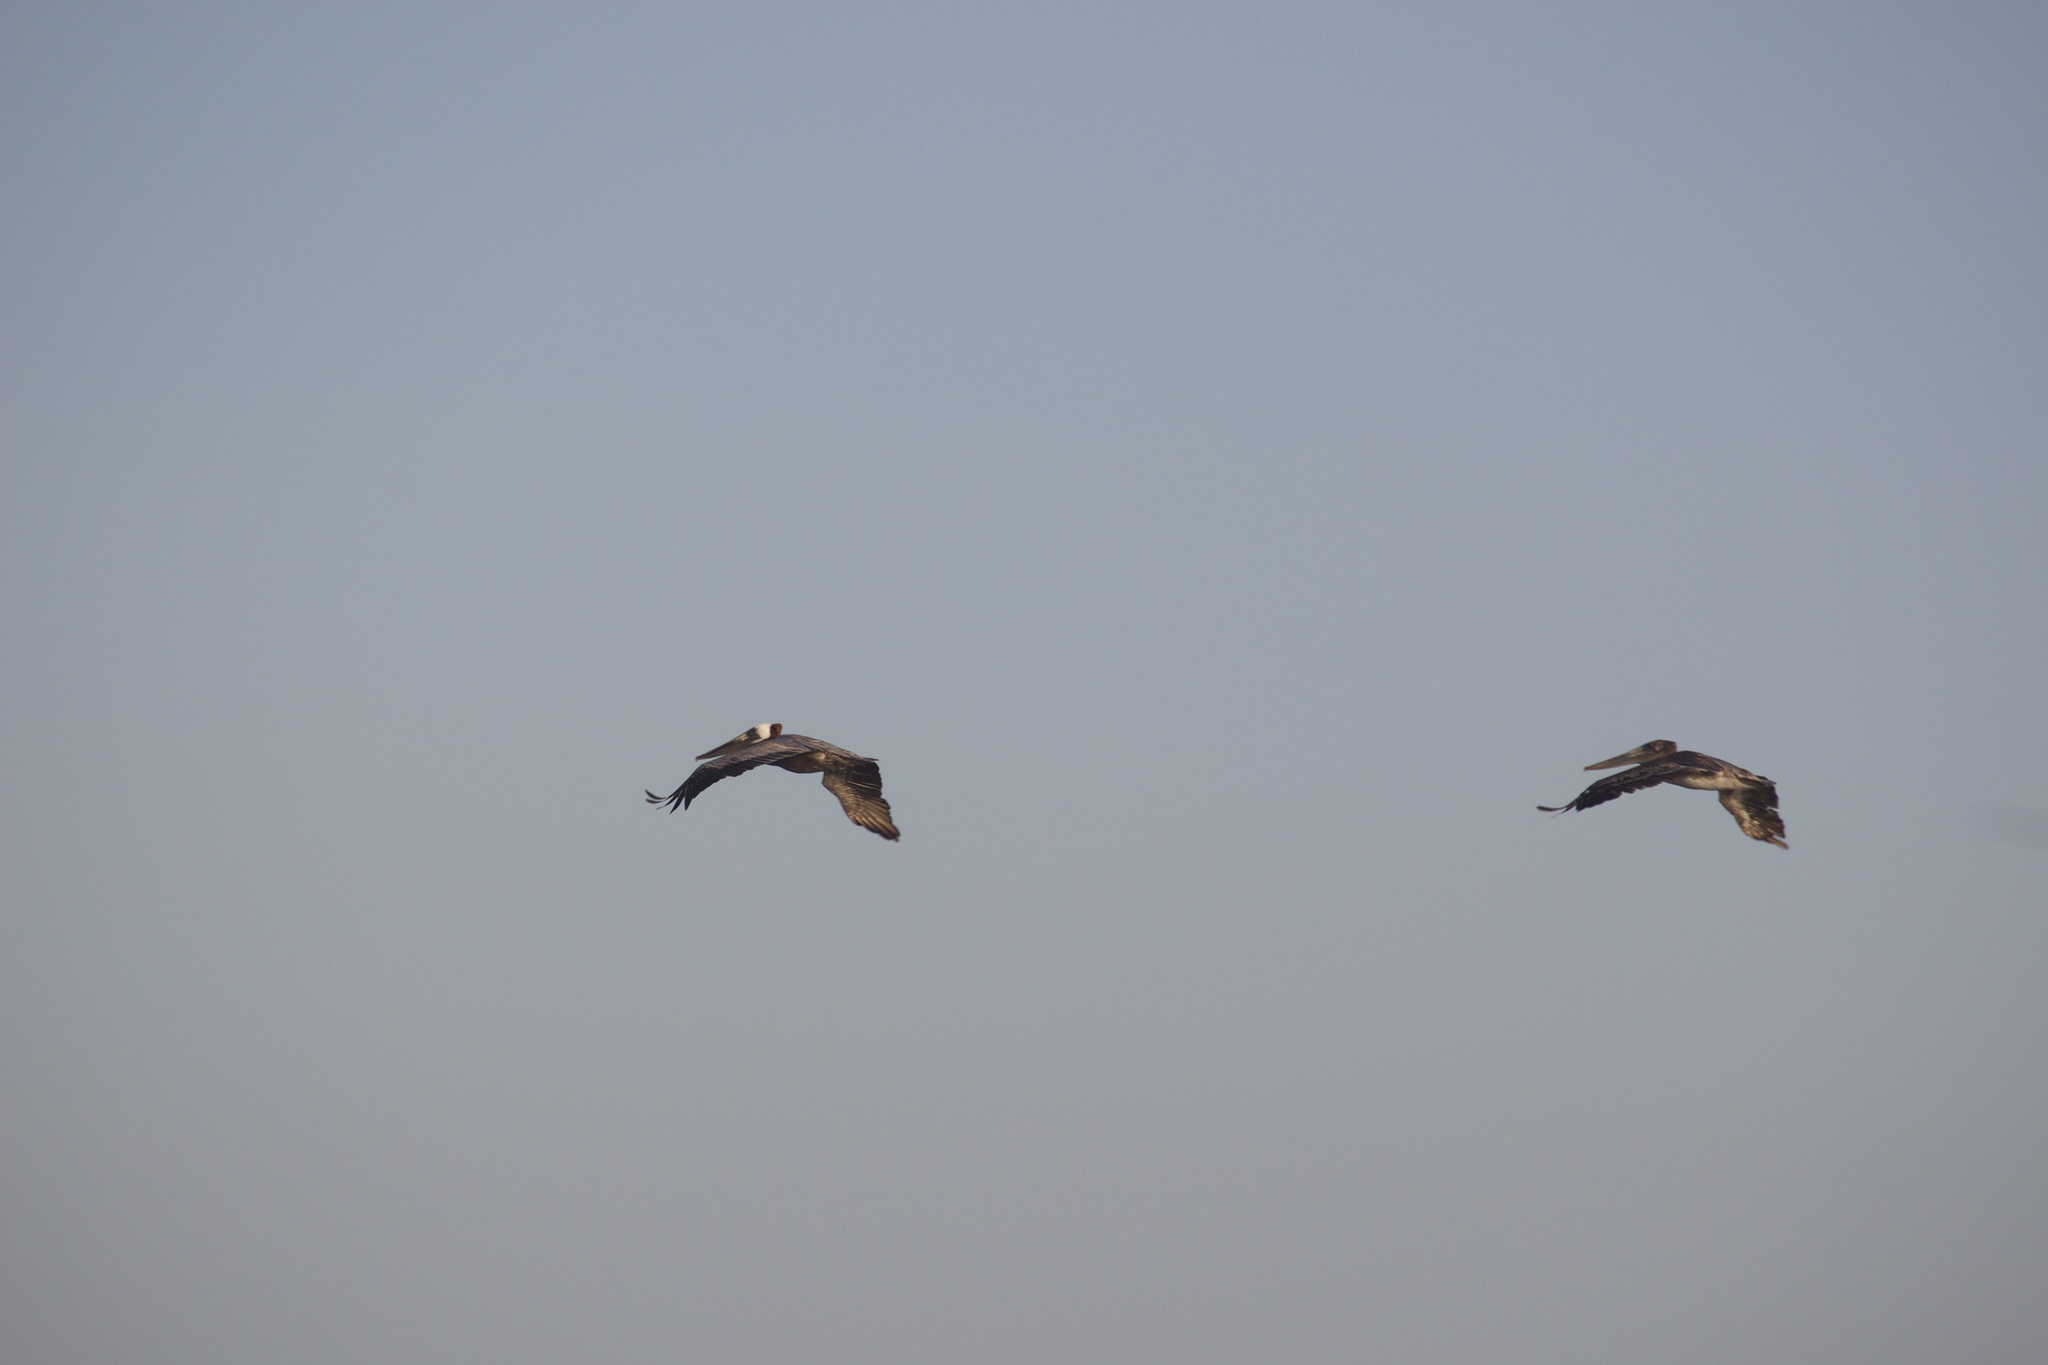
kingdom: Animalia
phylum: Chordata
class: Aves
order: Pelecaniformes
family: Pelecanidae
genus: Pelecanus
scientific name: Pelecanus occidentalis
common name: Brown pelican
